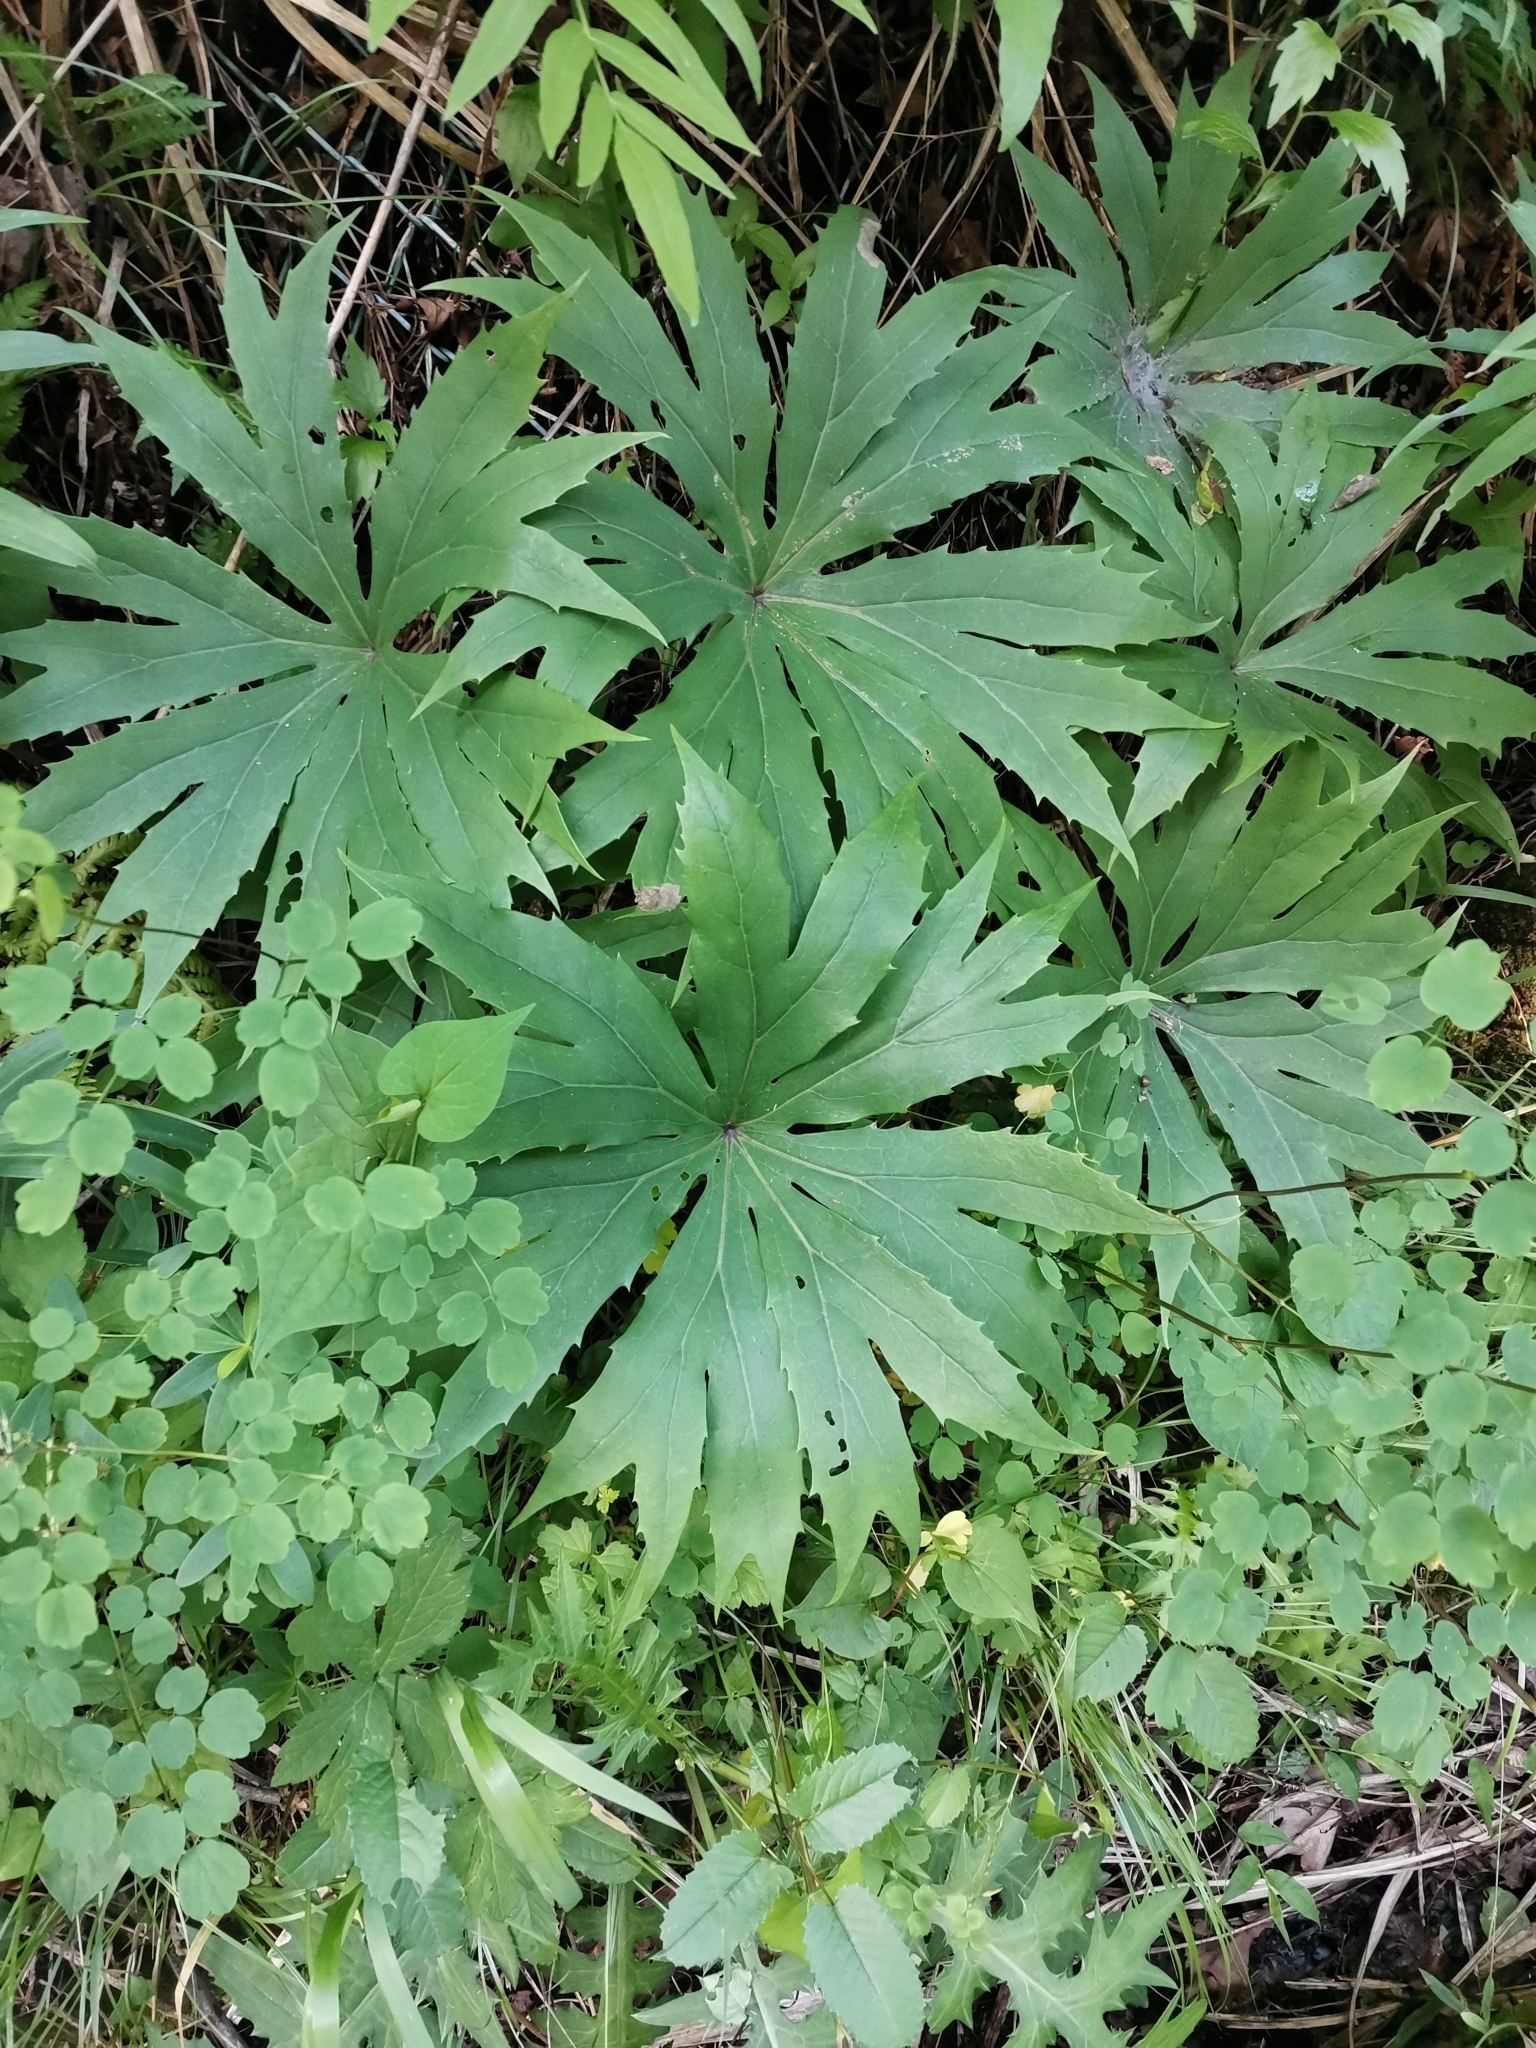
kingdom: Plantae
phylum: Tracheophyta
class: Magnoliopsida
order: Asterales
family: Asteraceae
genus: Syneilesis
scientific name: Syneilesis palmata
